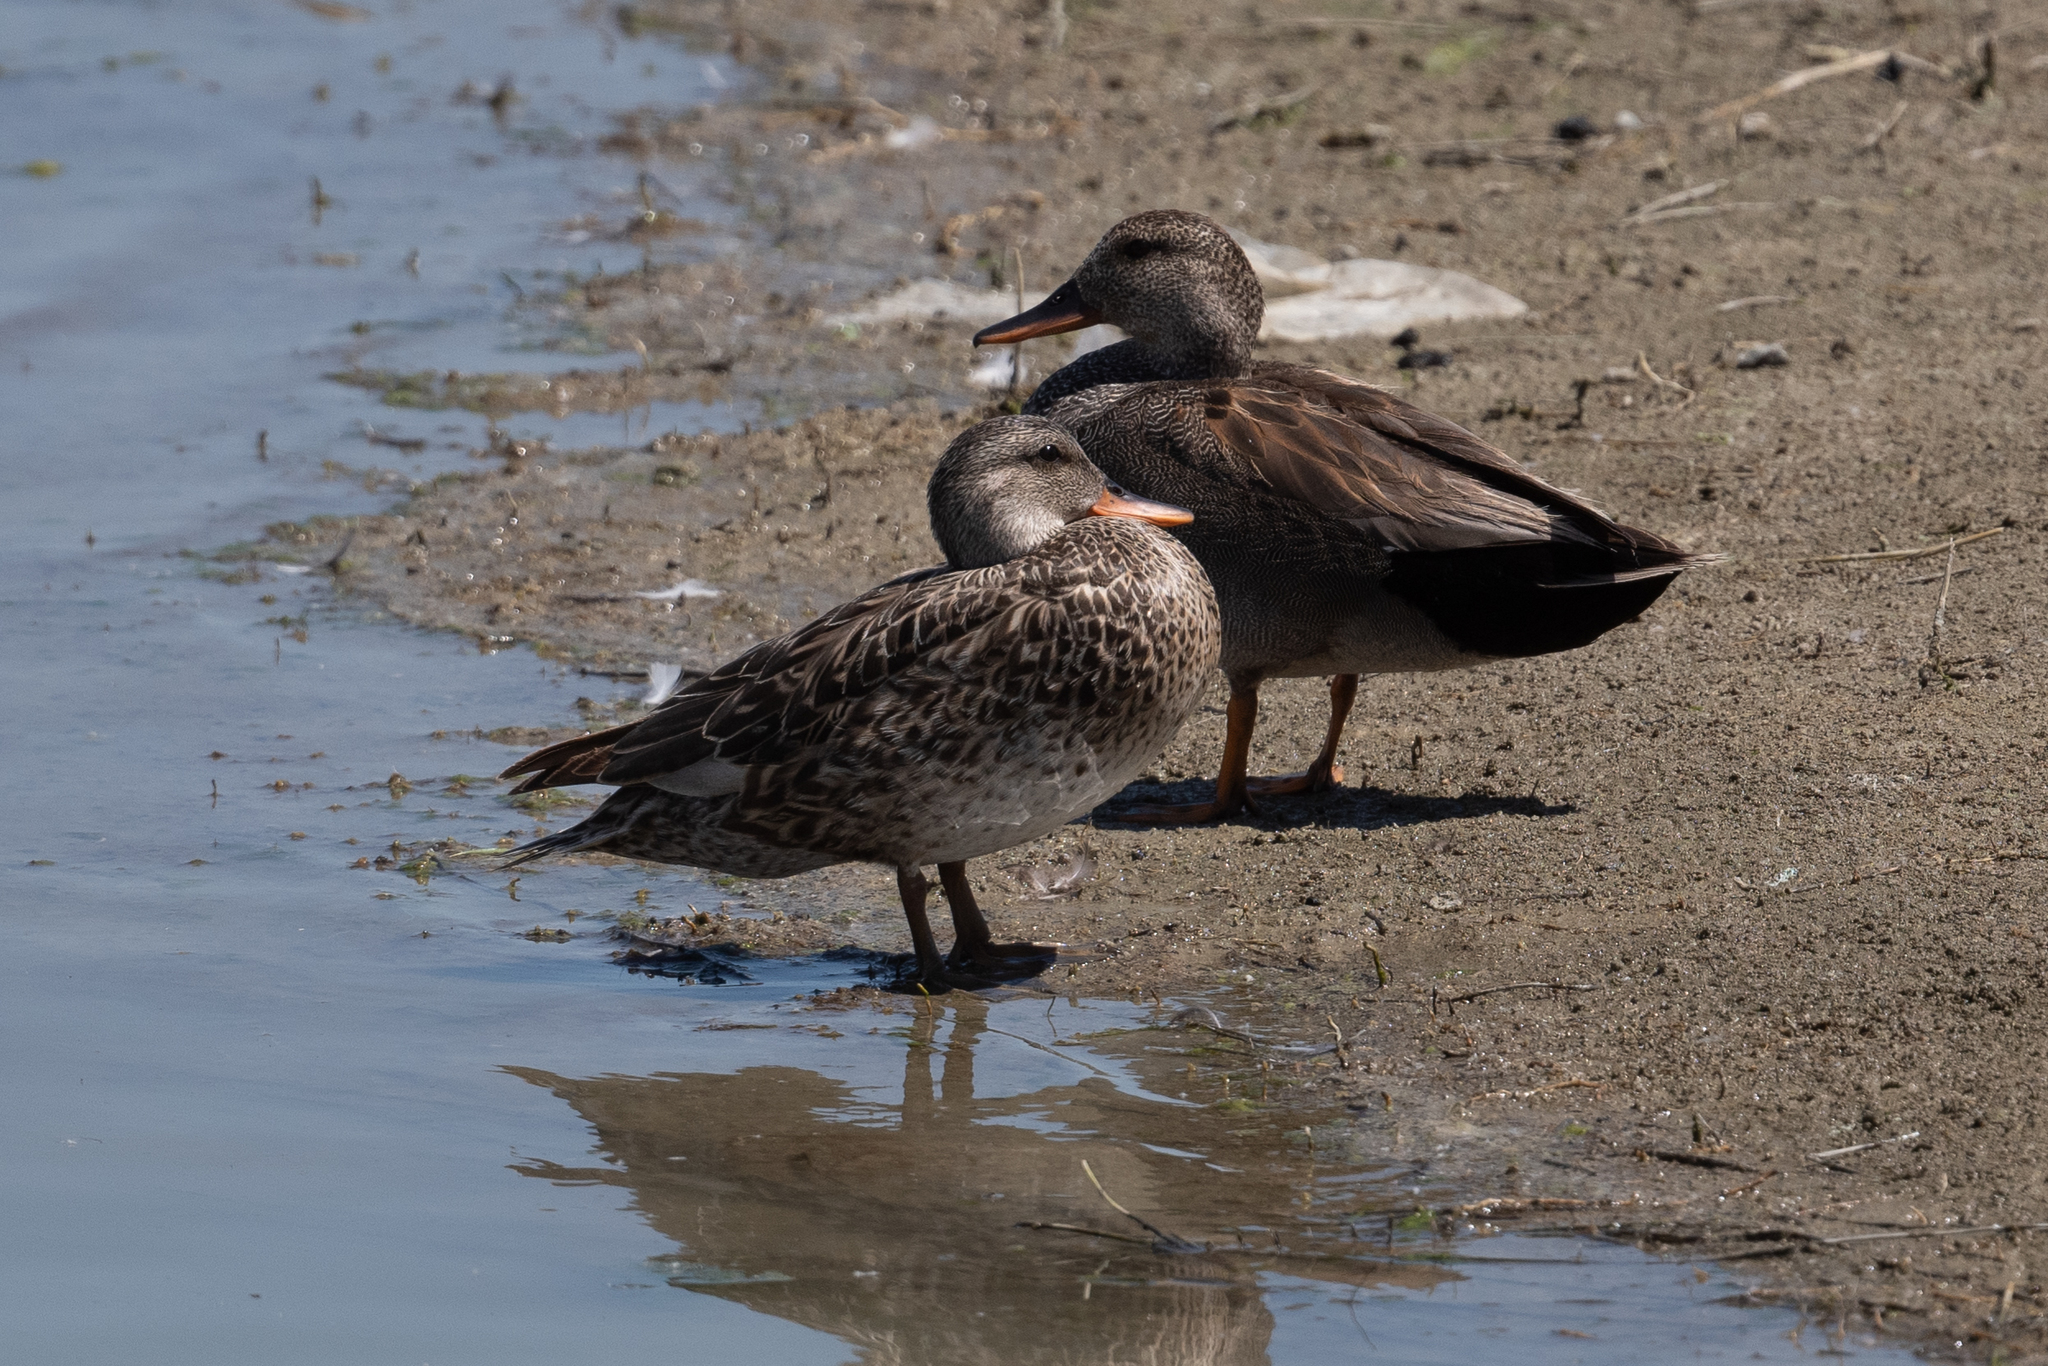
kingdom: Animalia
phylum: Chordata
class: Aves
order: Anseriformes
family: Anatidae
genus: Mareca
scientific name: Mareca strepera
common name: Gadwall
